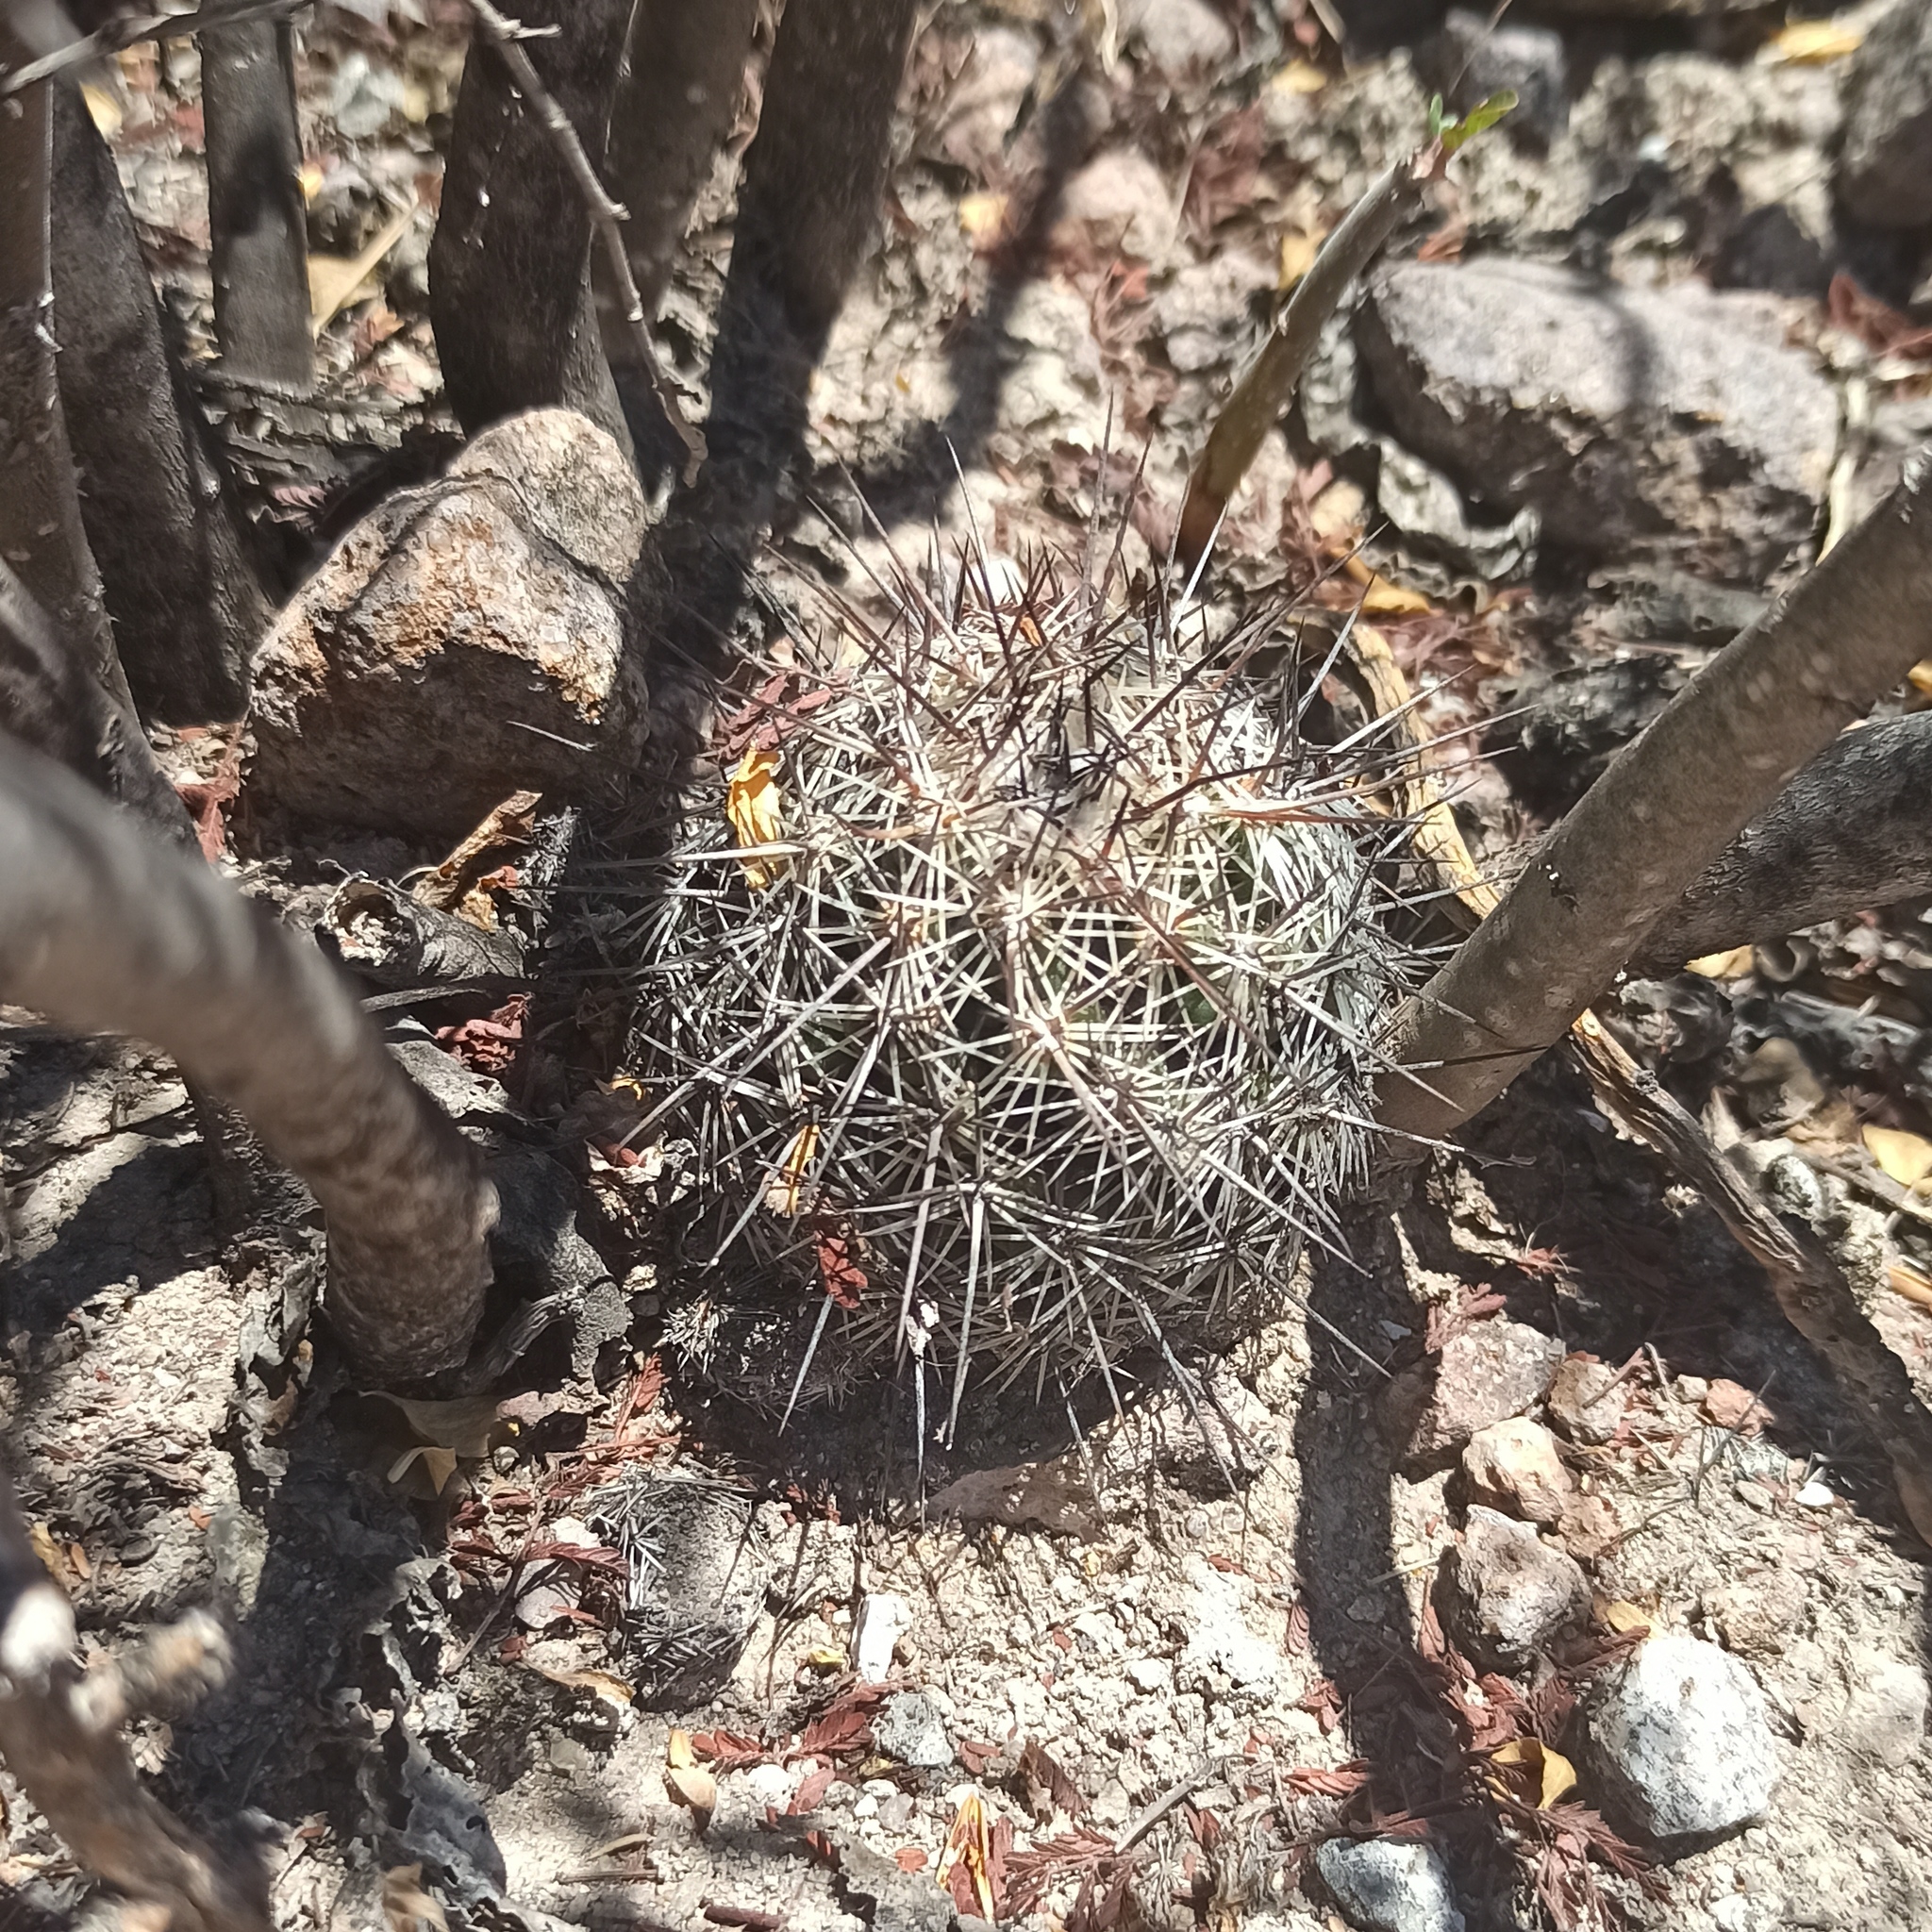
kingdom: Plantae
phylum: Tracheophyta
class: Magnoliopsida
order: Caryophyllales
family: Cactaceae
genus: Cochemiea
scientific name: Cochemiea conoidea
